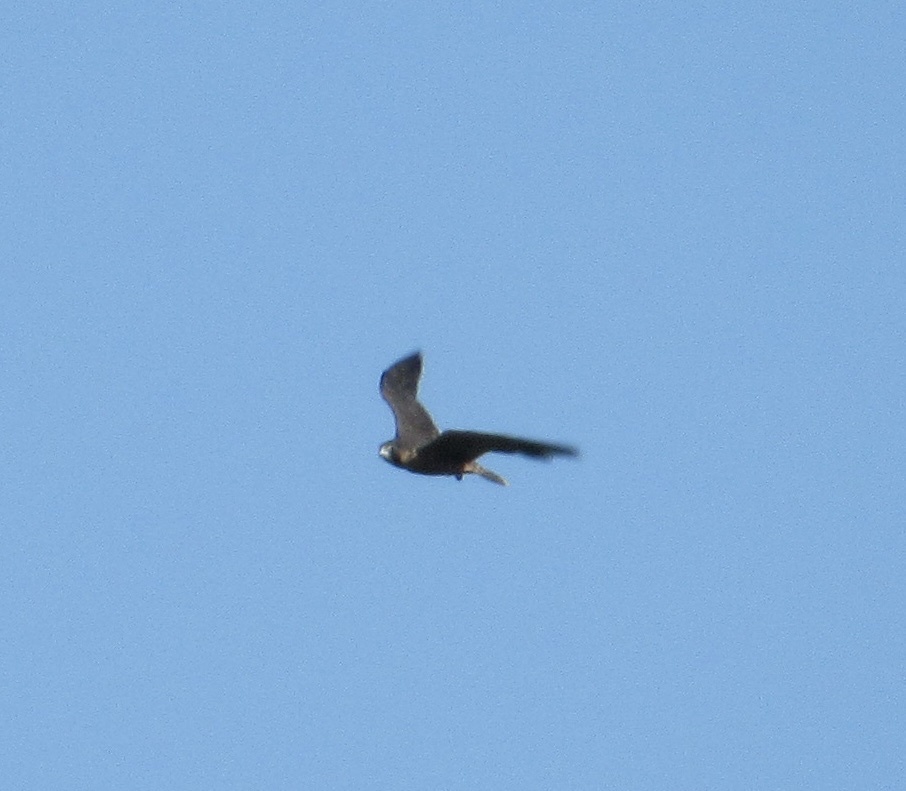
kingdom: Animalia
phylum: Chordata
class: Aves
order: Falconiformes
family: Falconidae
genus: Falco
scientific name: Falco peregrinus
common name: Peregrine falcon
